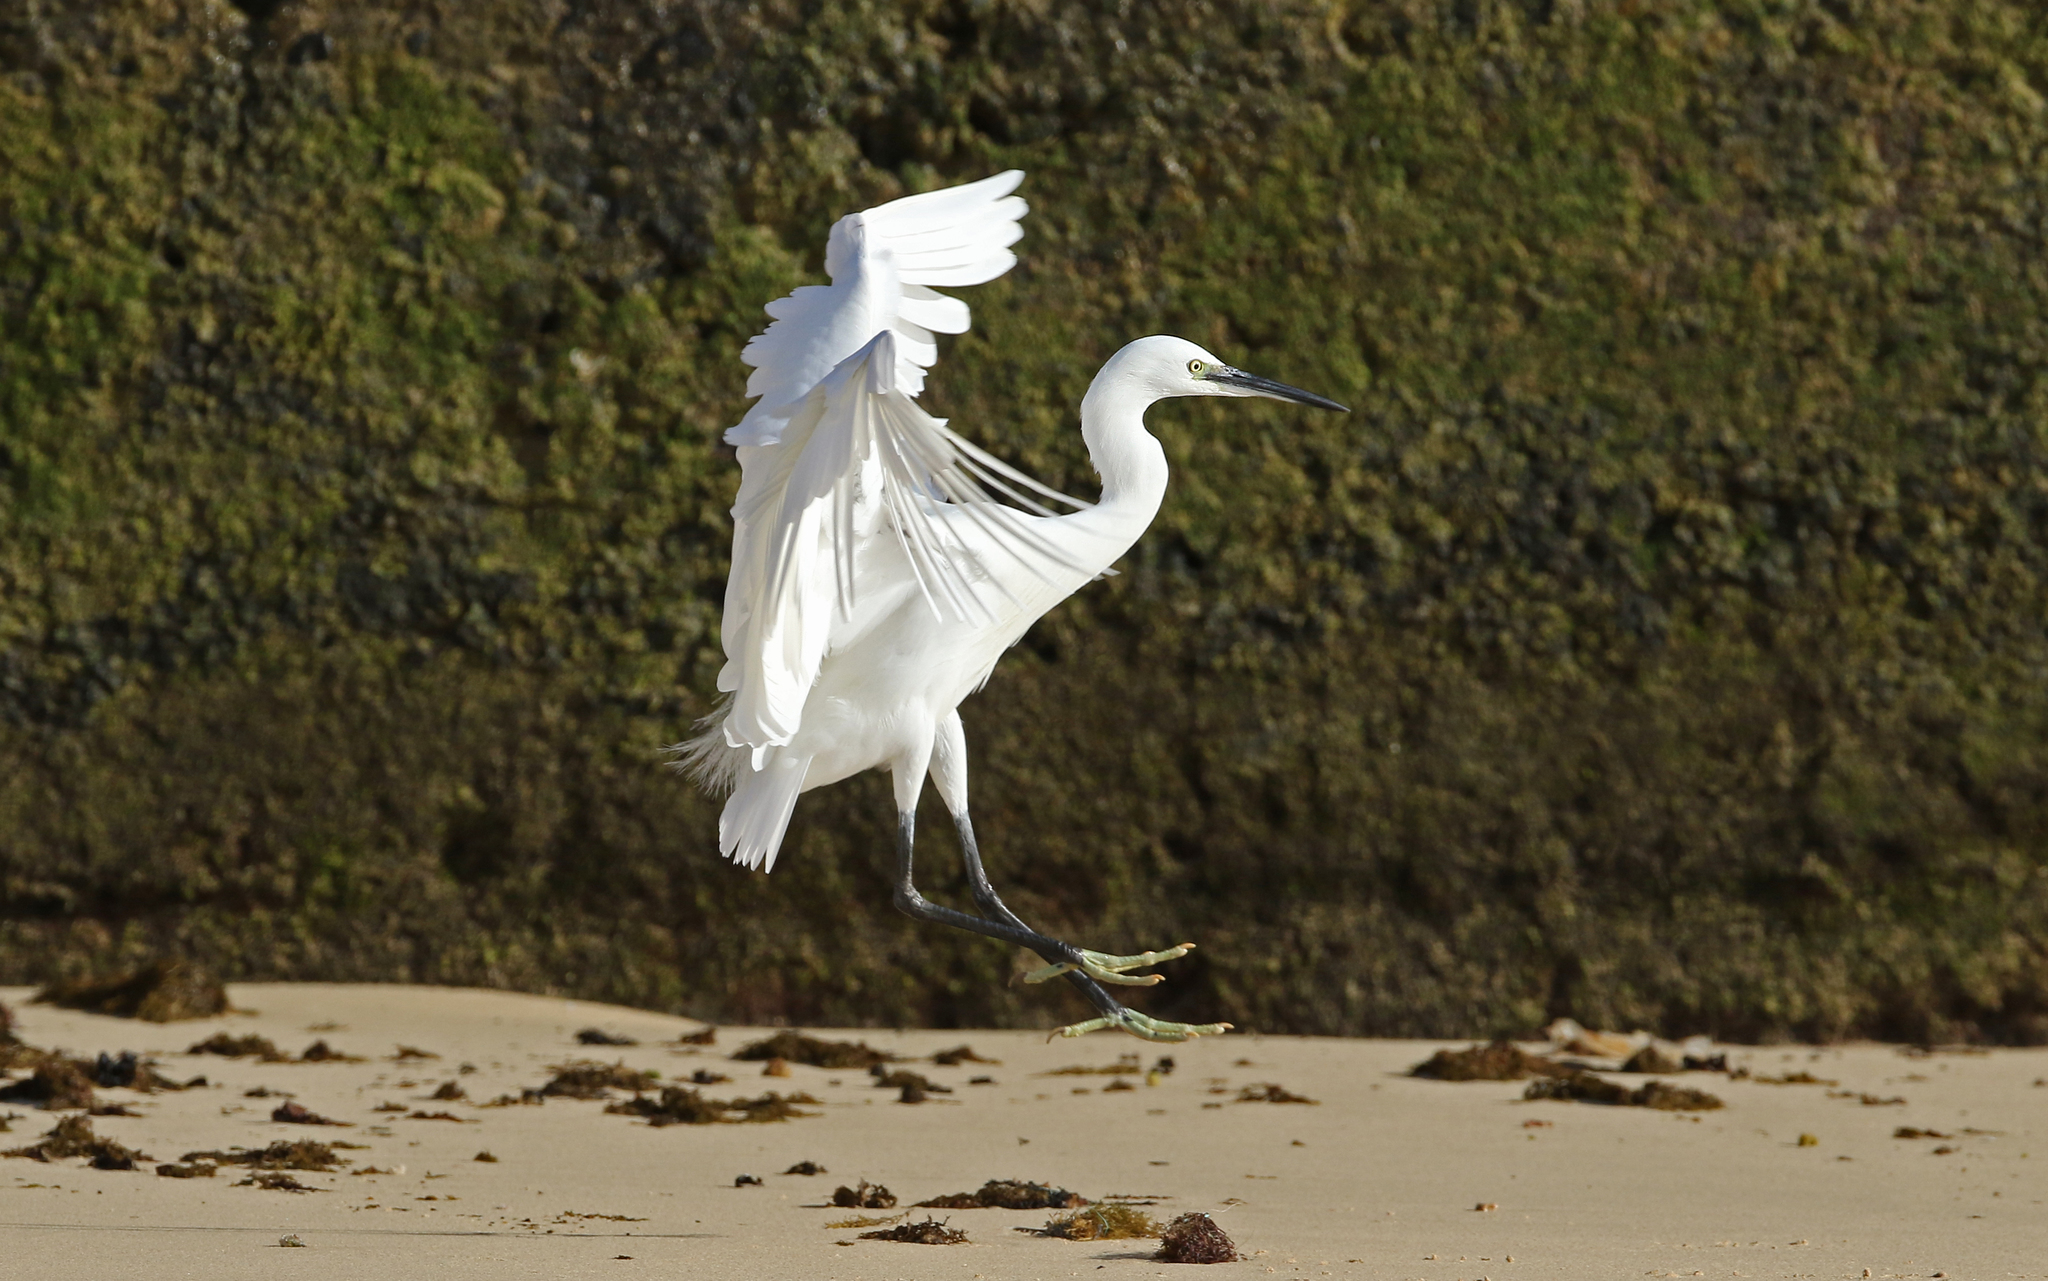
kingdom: Animalia
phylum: Chordata
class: Aves
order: Pelecaniformes
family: Ardeidae
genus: Egretta
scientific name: Egretta garzetta
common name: Little egret
